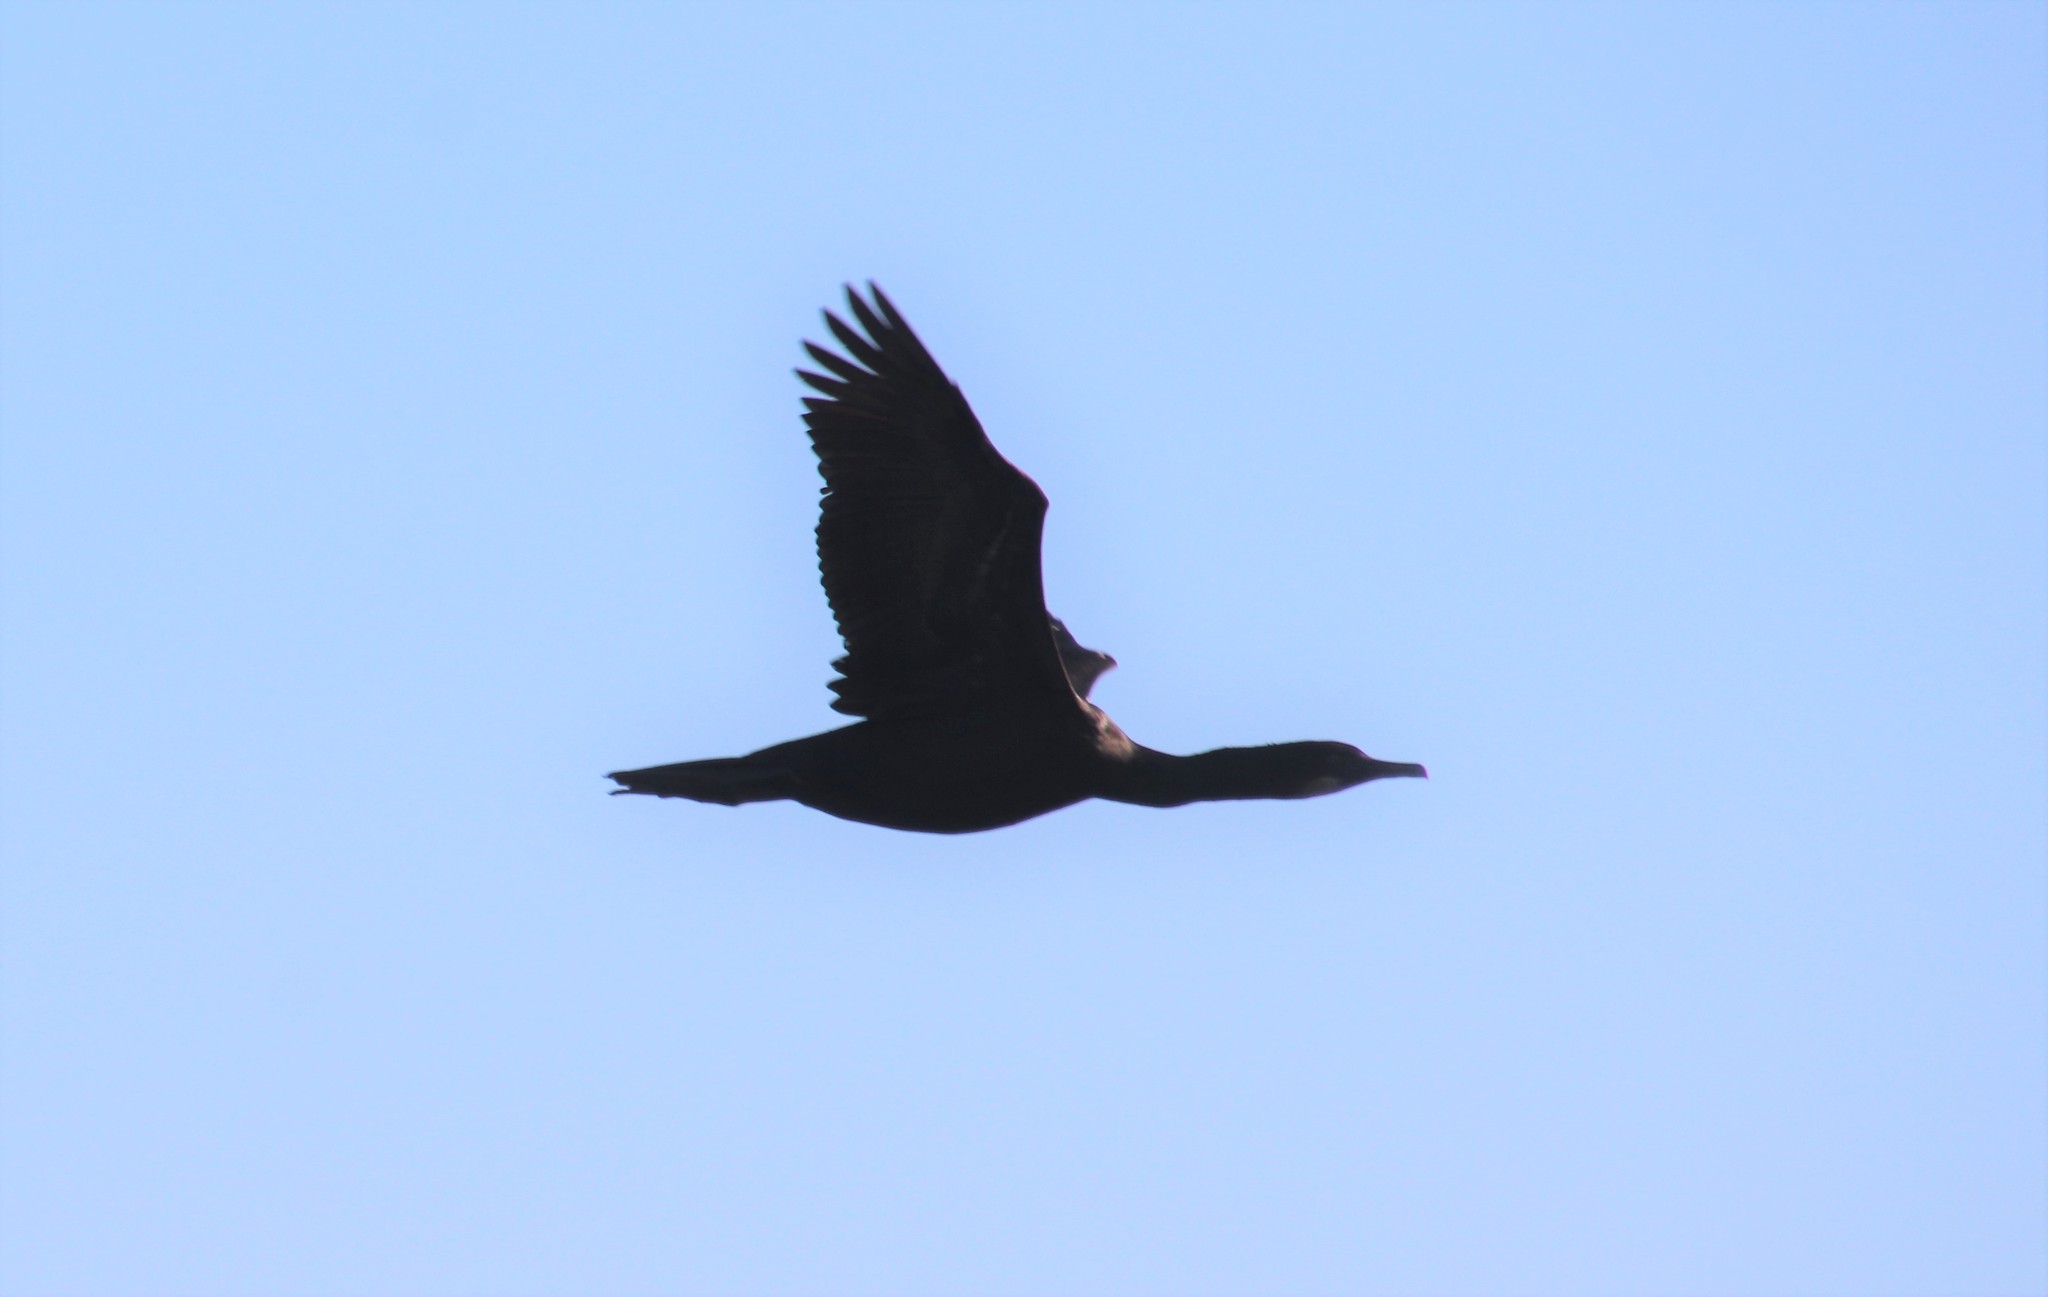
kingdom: Animalia
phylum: Chordata
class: Aves
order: Suliformes
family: Phalacrocoracidae
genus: Urile
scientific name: Urile penicillatus
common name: Brandt's cormorant
